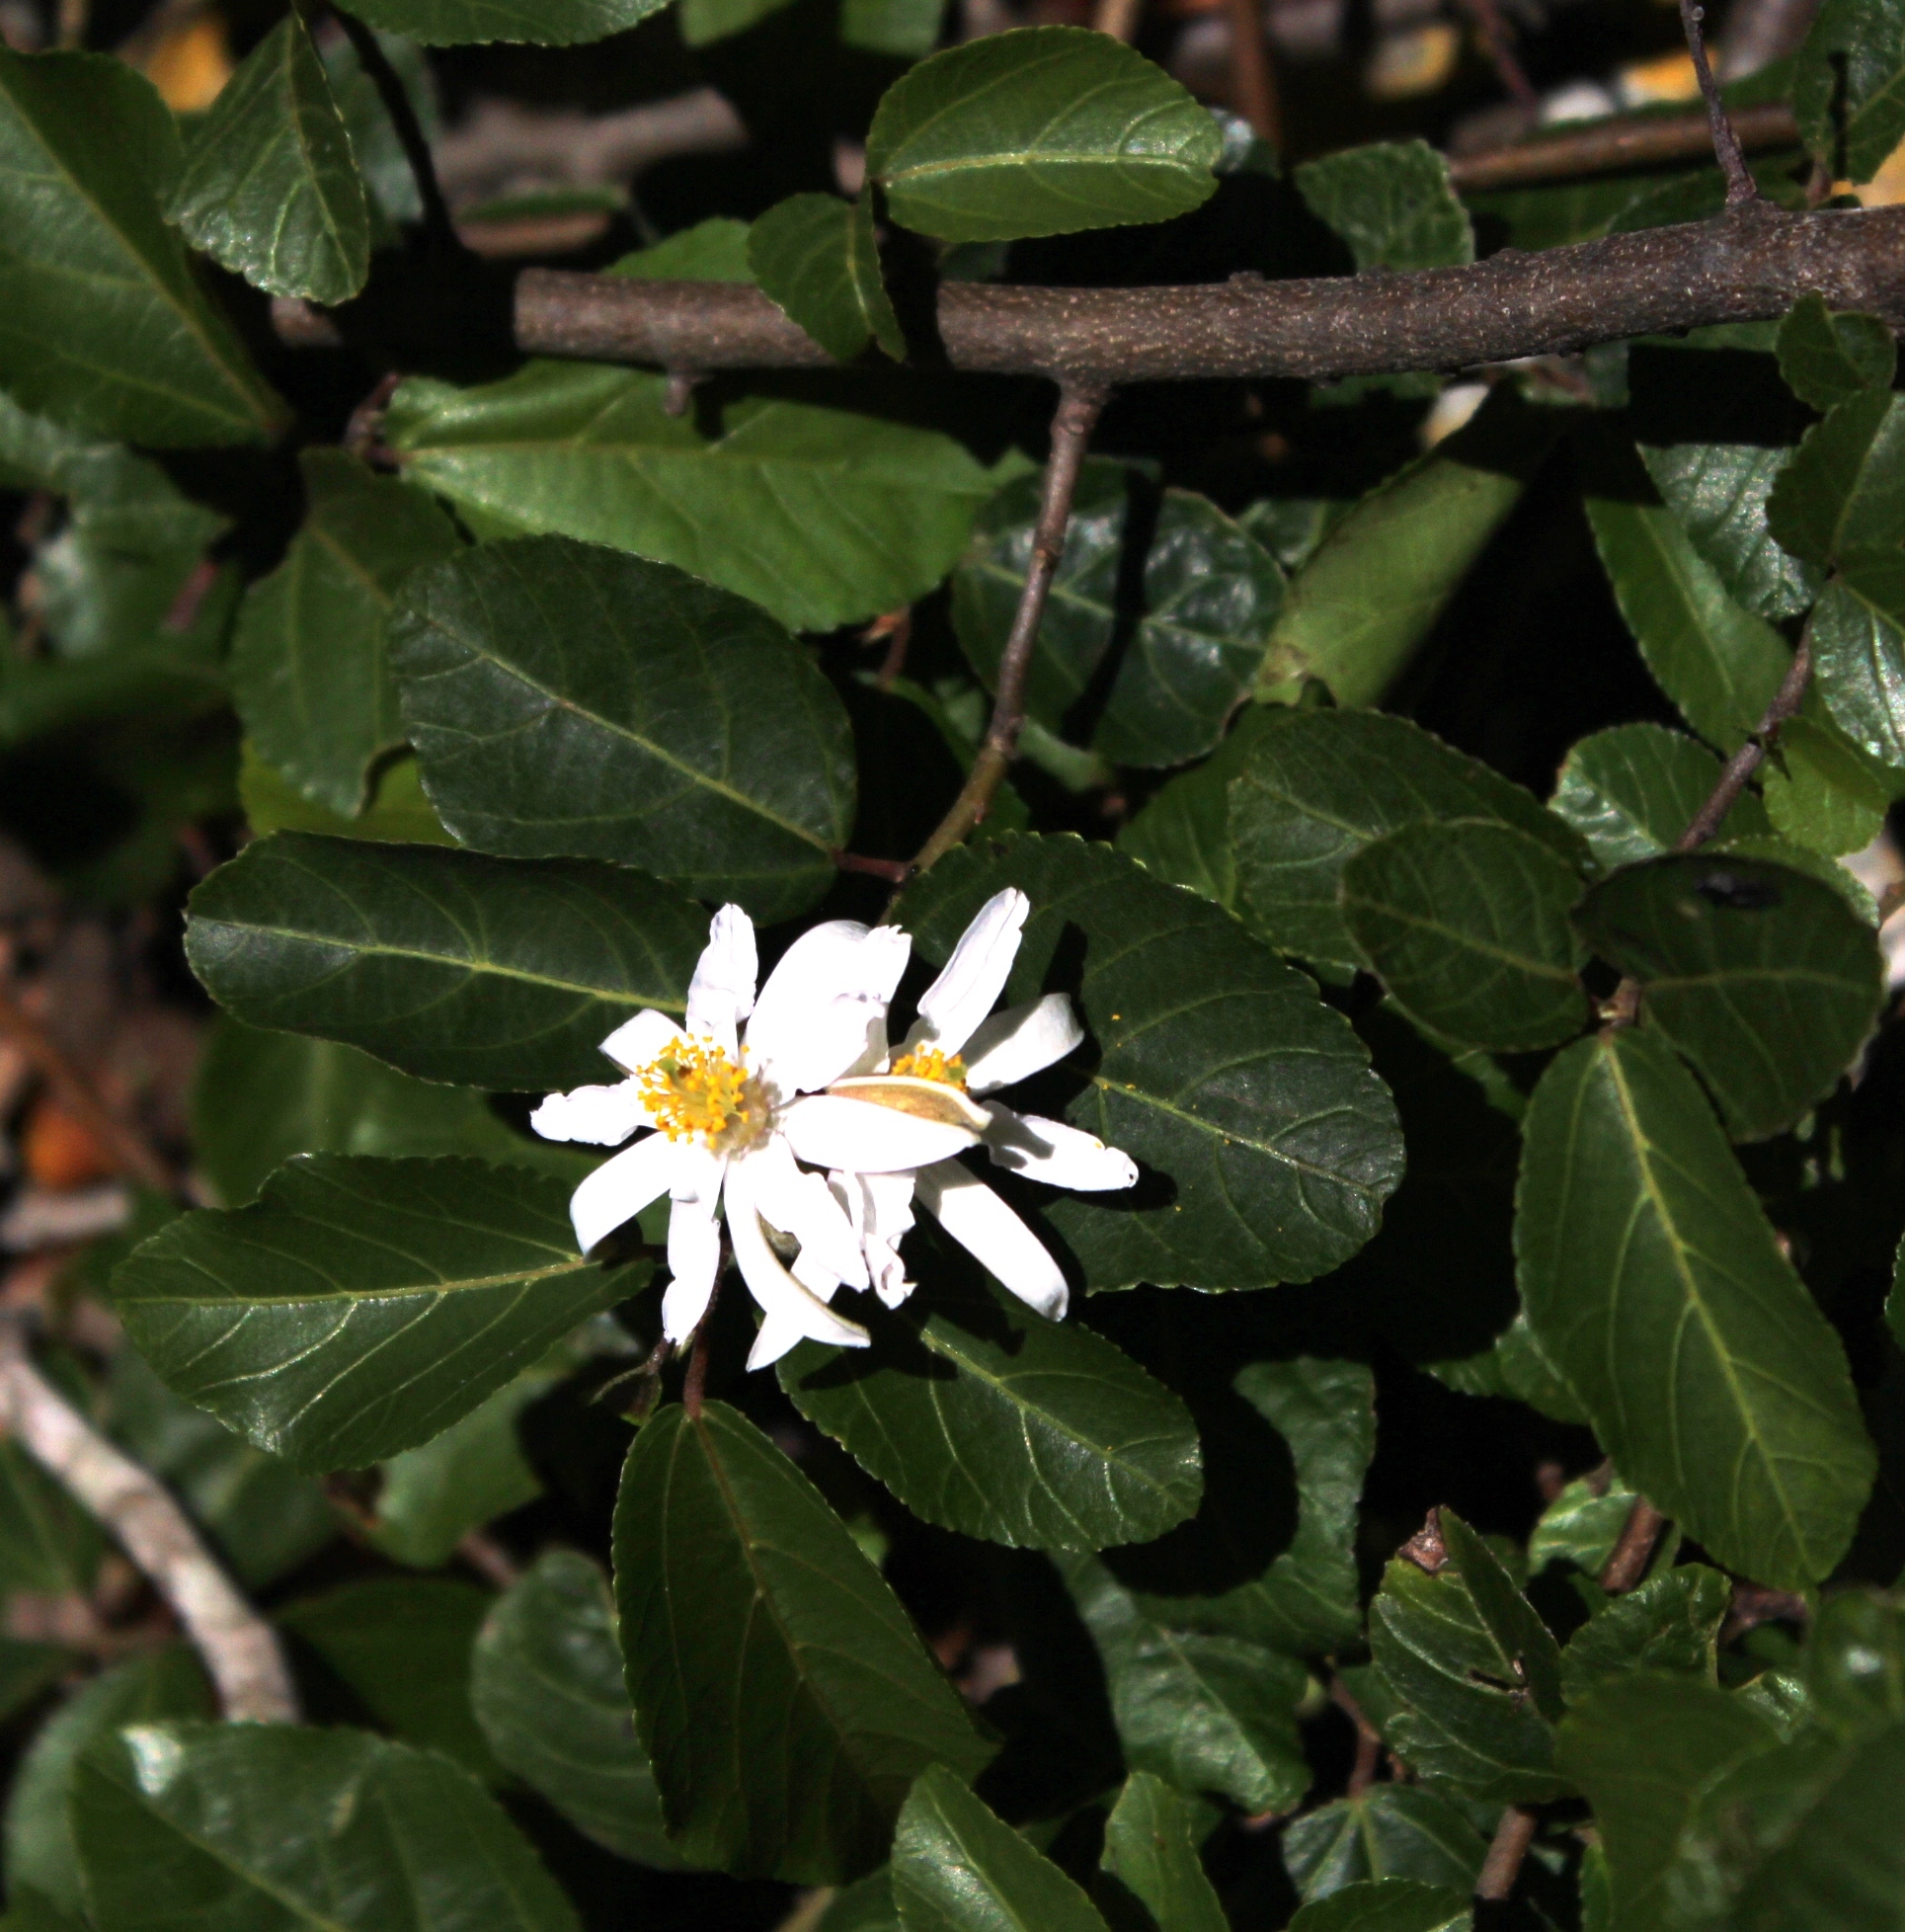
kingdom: Plantae
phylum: Tracheophyta
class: Magnoliopsida
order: Malvales
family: Malvaceae
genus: Grewia
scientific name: Grewia occidentalis
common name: Crossberry
